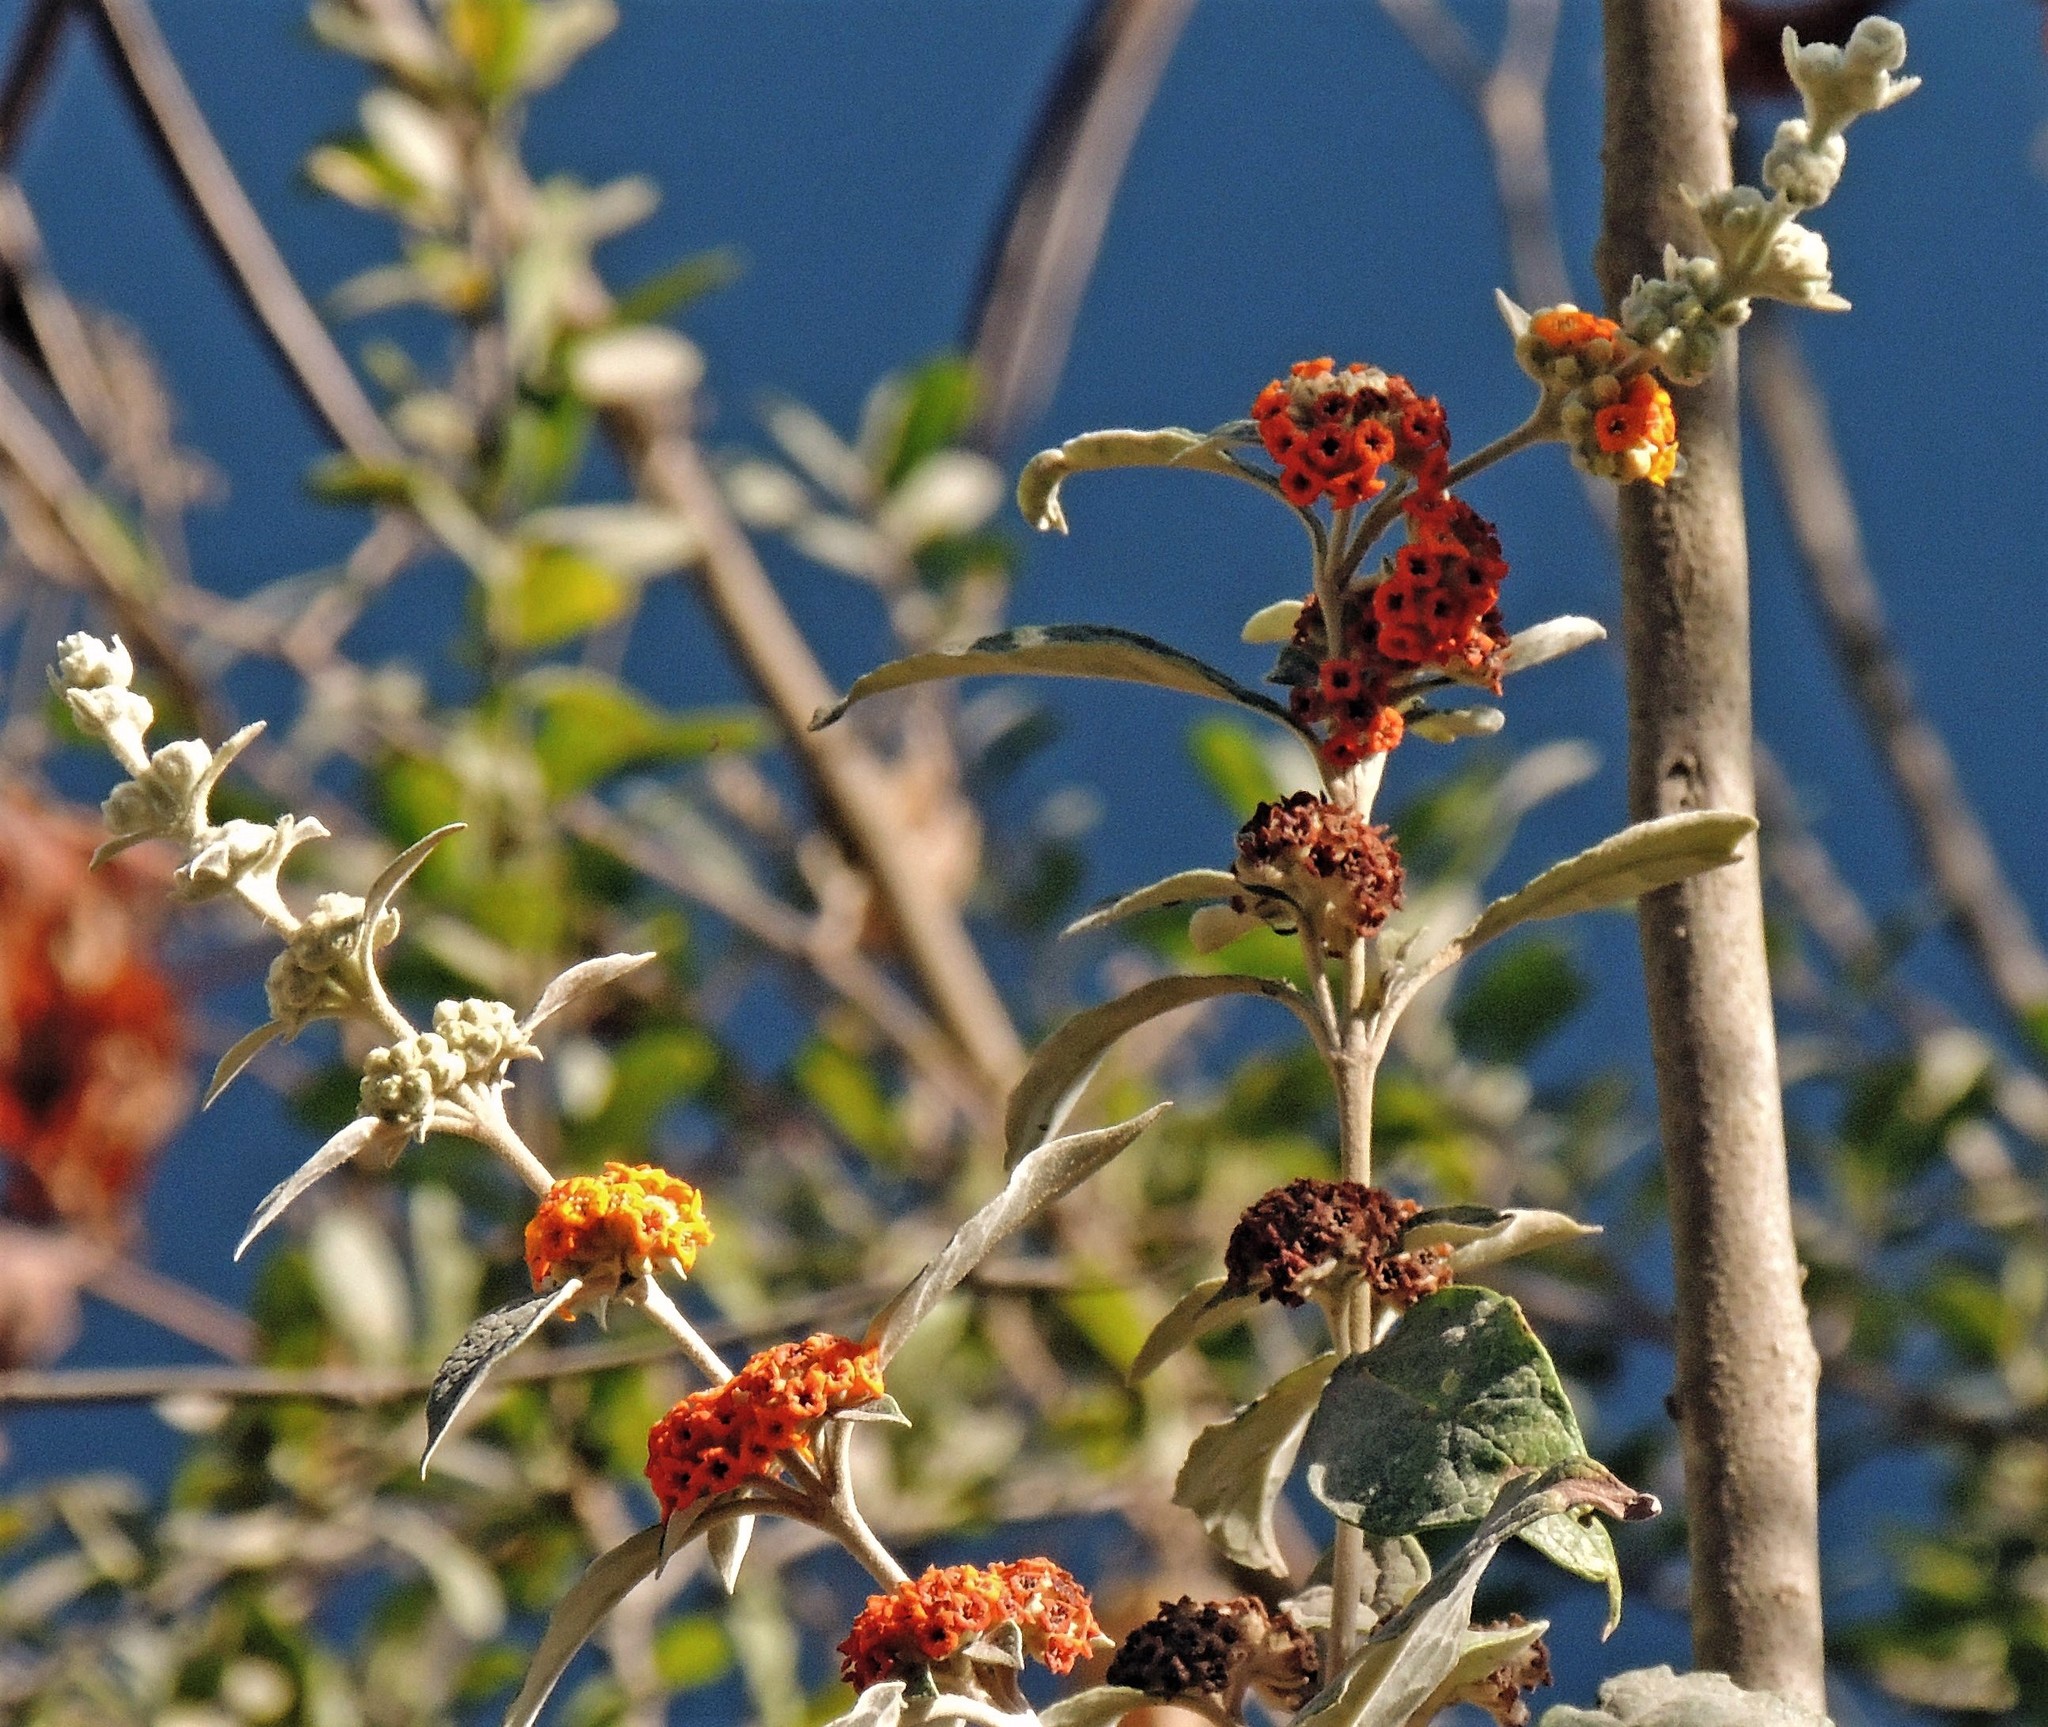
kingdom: Plantae
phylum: Tracheophyta
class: Magnoliopsida
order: Lamiales
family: Scrophulariaceae
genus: Buddleja
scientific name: Buddleja tucumanensis
